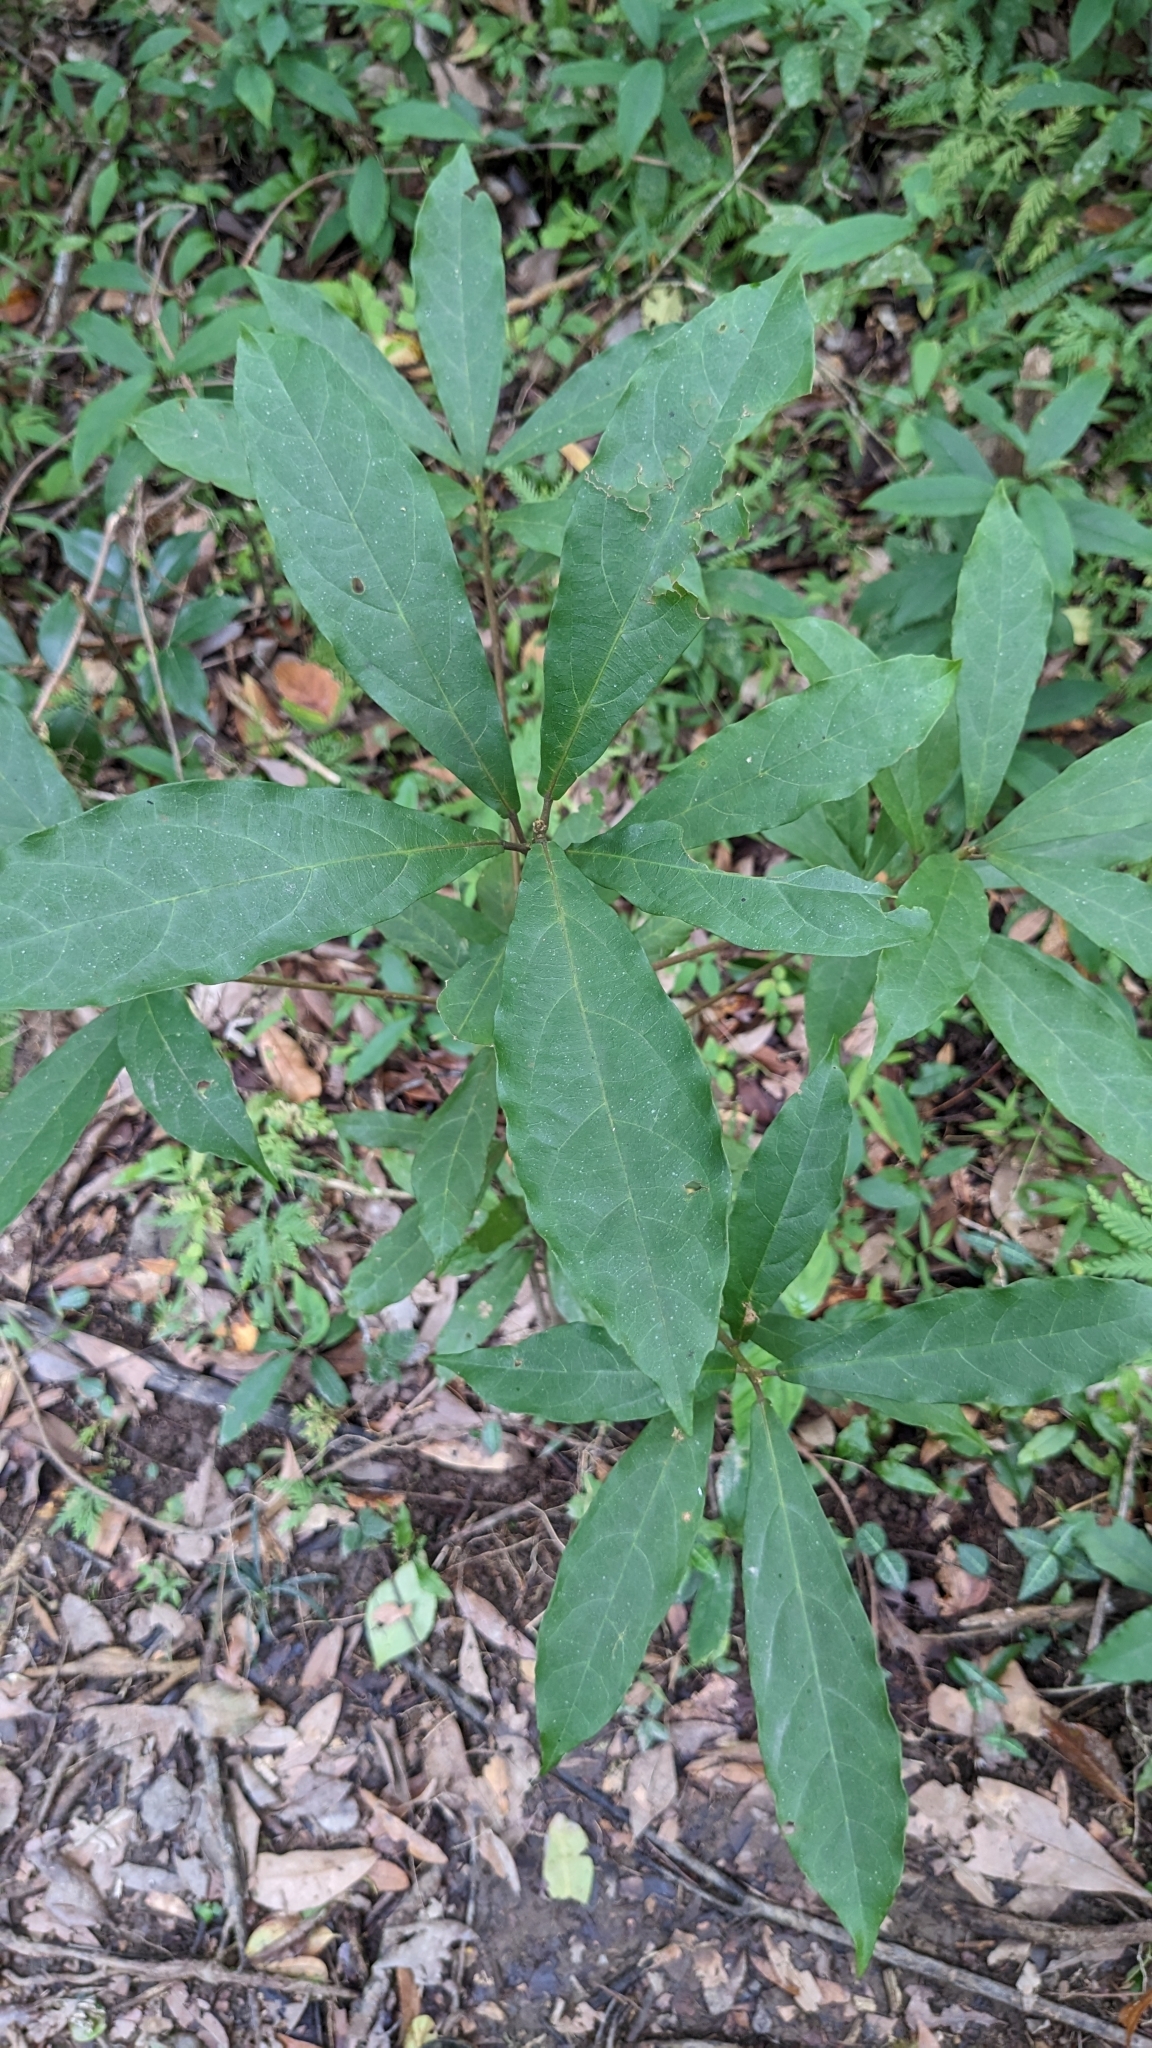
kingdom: Plantae
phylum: Tracheophyta
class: Magnoliopsida
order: Oxalidales
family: Elaeocarpaceae
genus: Sloanea
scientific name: Sloanea dasycarpa
